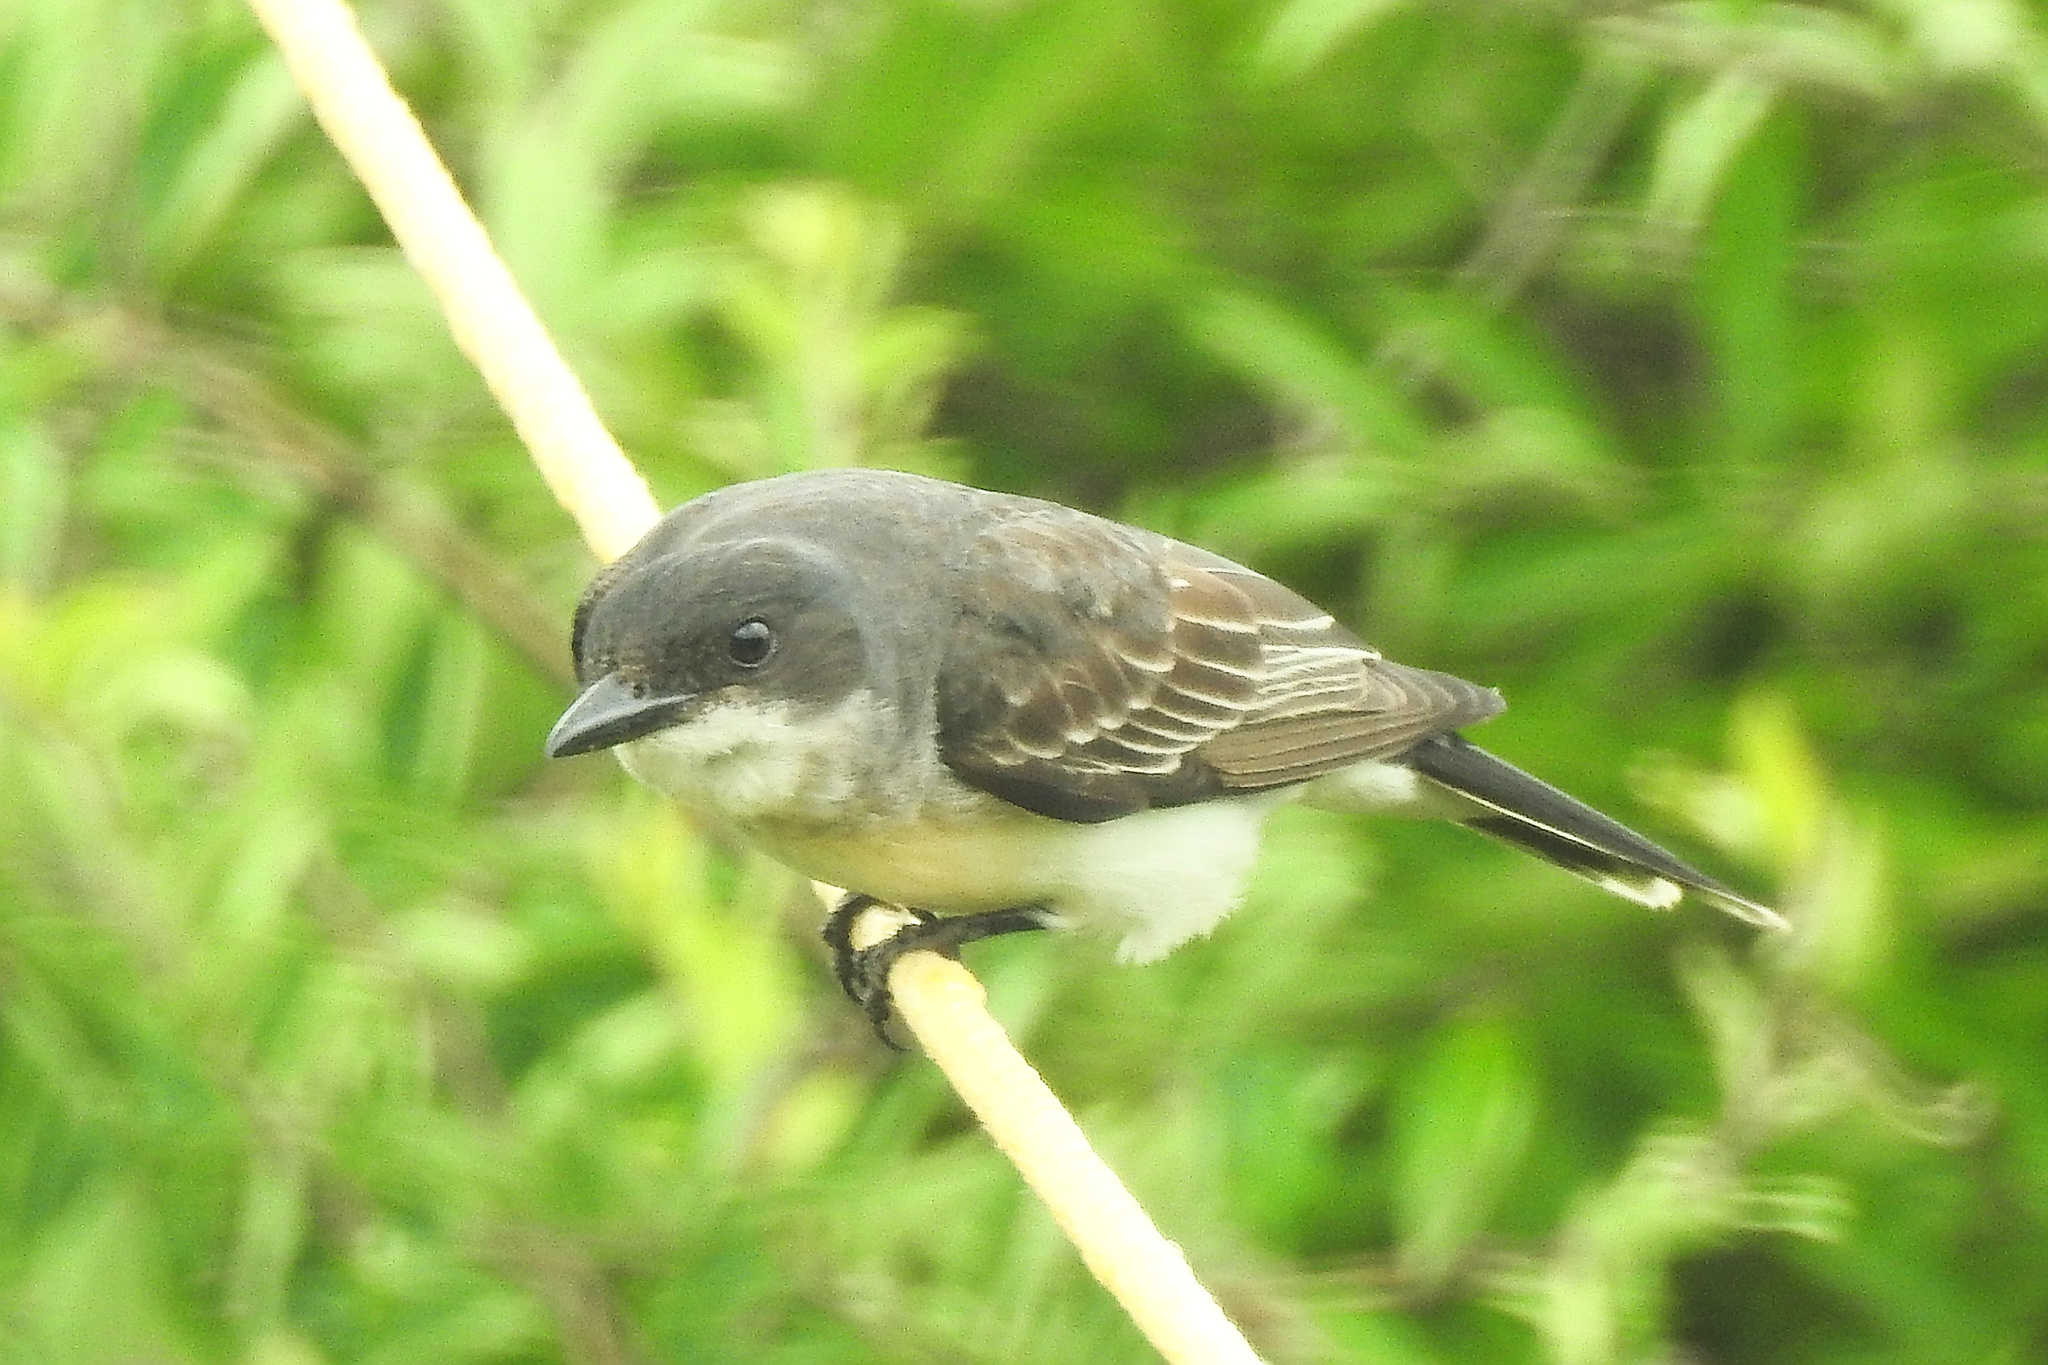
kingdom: Animalia
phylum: Chordata
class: Aves
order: Passeriformes
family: Tyrannidae
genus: Tyrannus
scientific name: Tyrannus tyrannus
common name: Eastern kingbird
